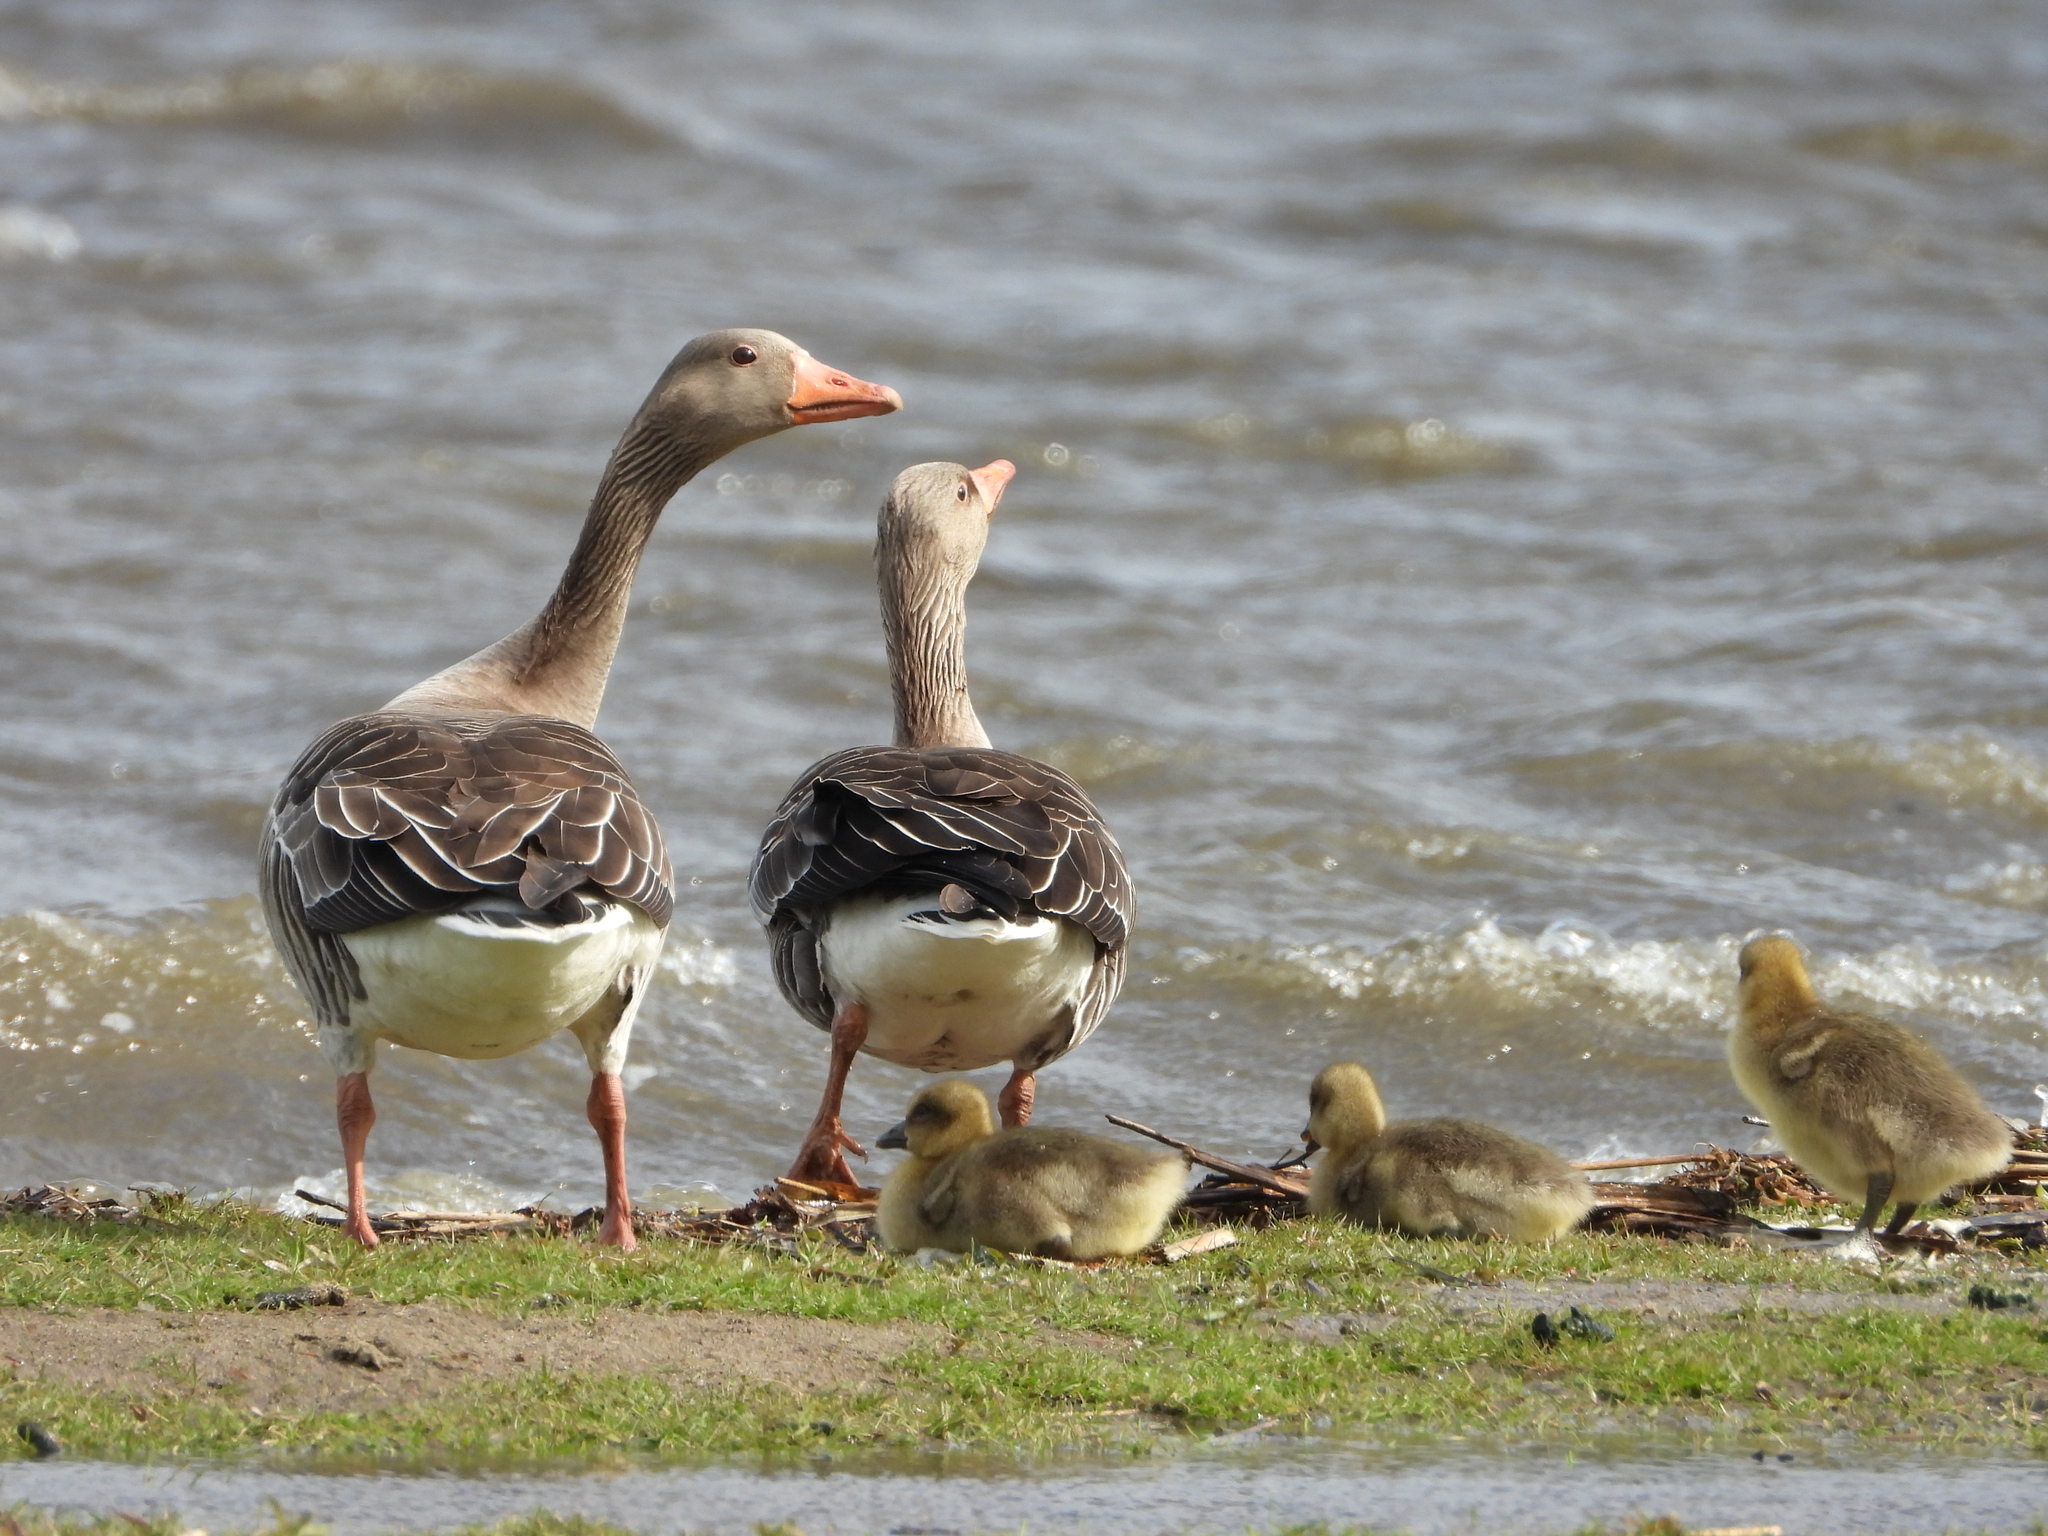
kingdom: Animalia
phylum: Chordata
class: Aves
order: Anseriformes
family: Anatidae
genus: Anser
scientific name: Anser anser
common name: Greylag goose
